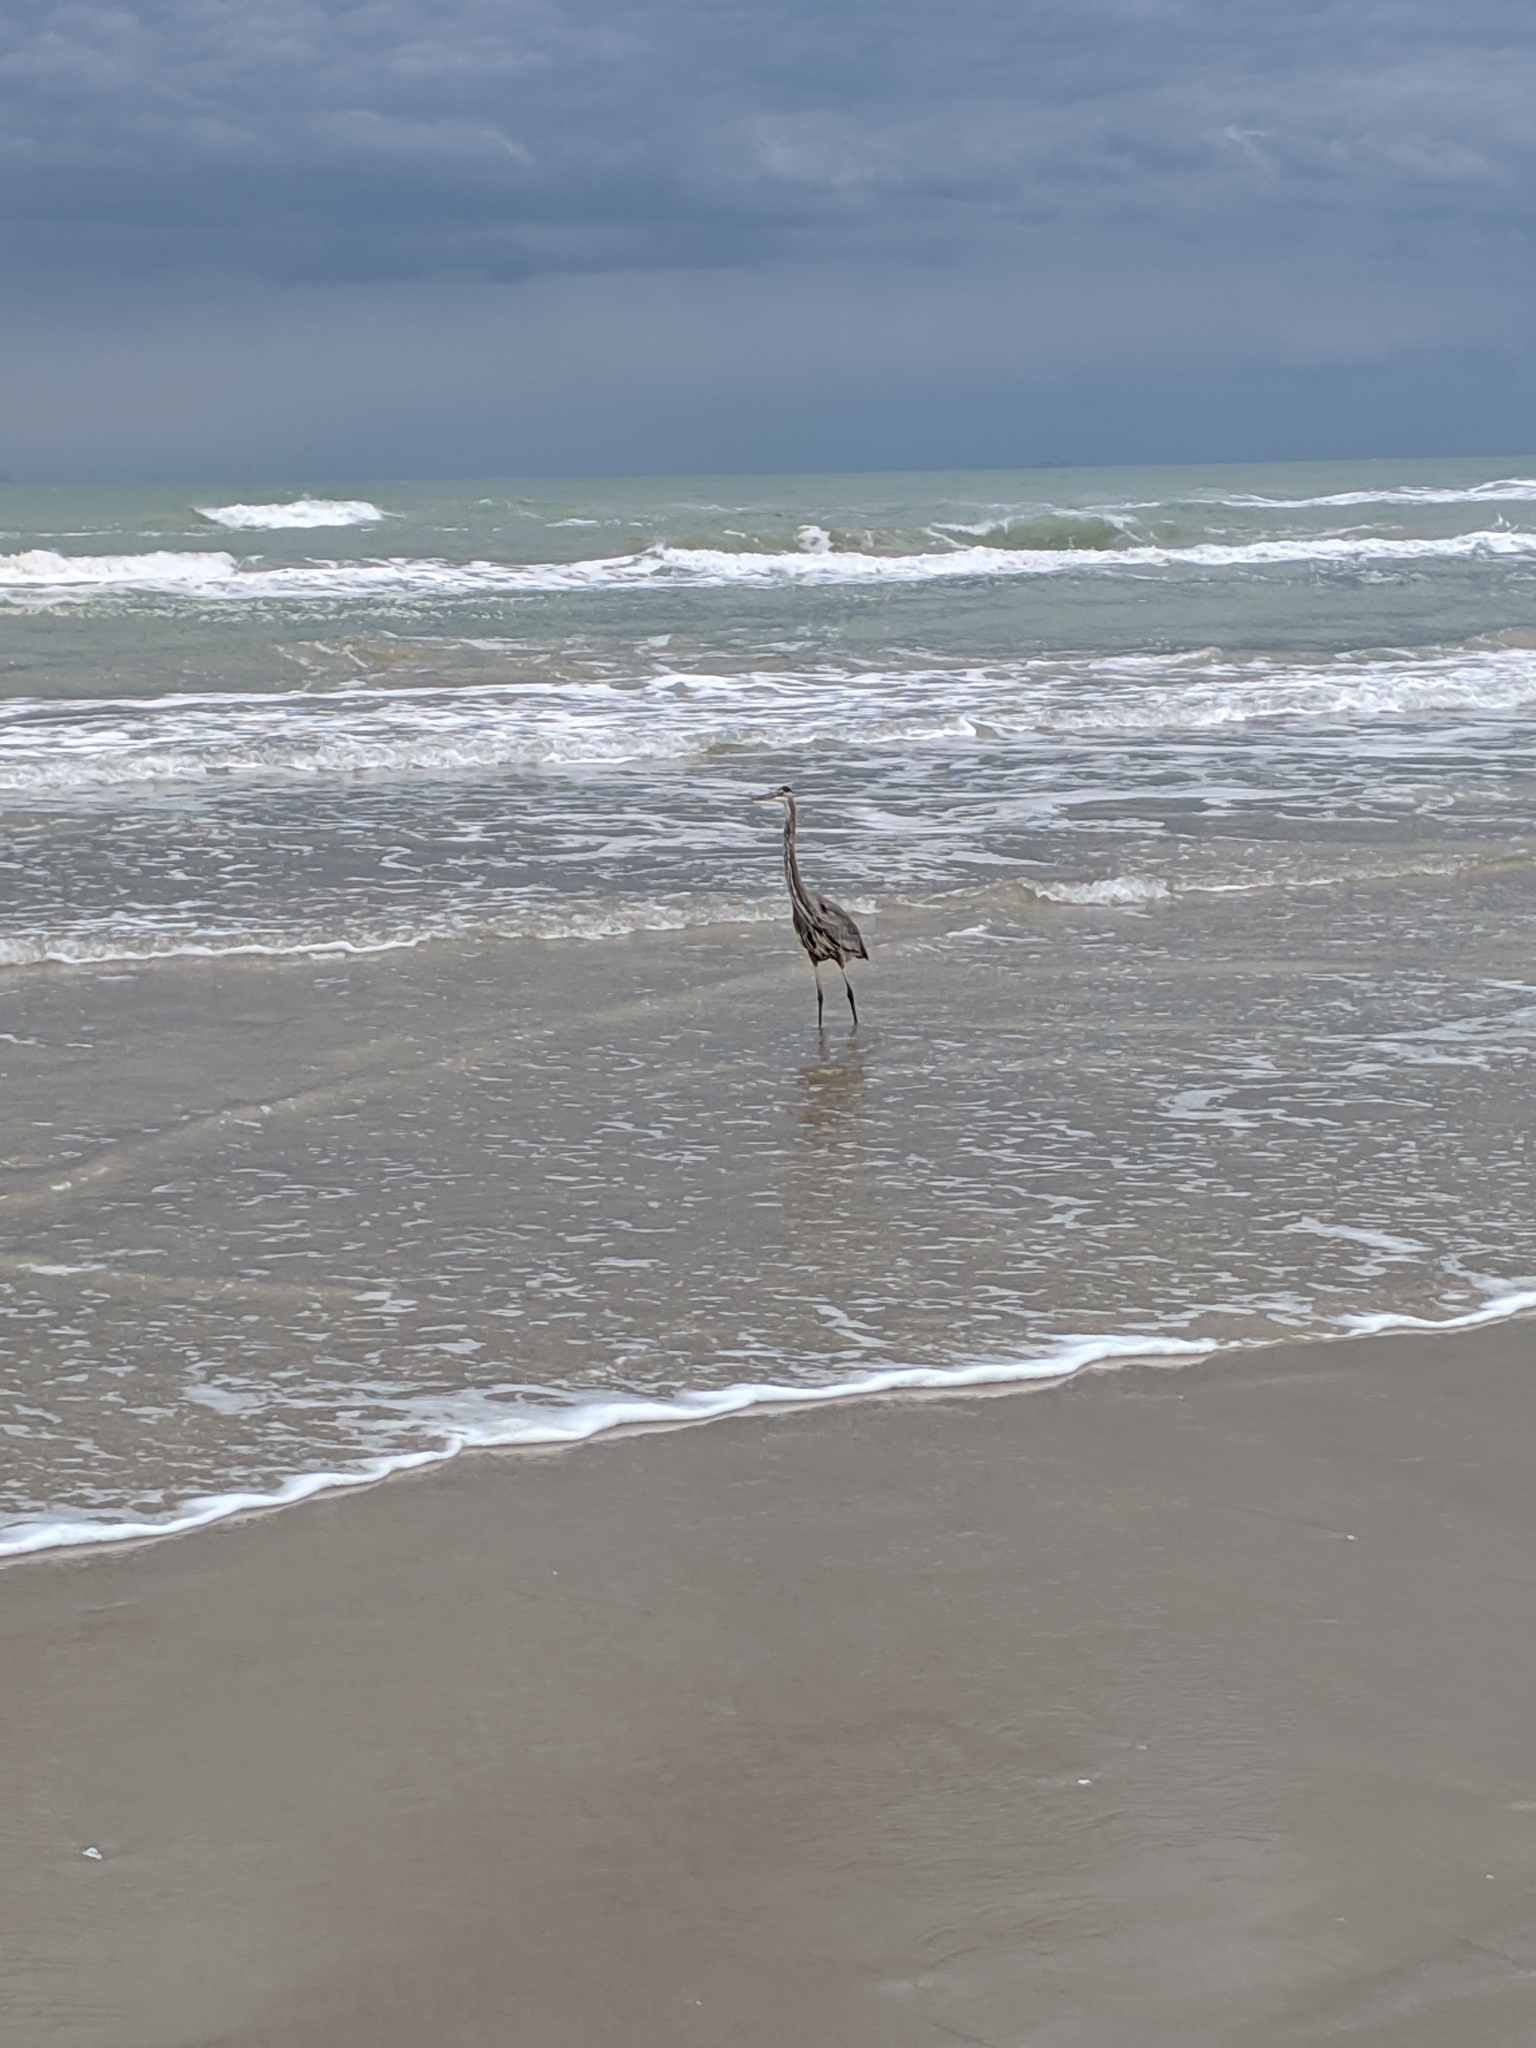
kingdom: Animalia
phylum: Chordata
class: Aves
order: Pelecaniformes
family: Ardeidae
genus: Ardea
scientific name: Ardea herodias
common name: Great blue heron
